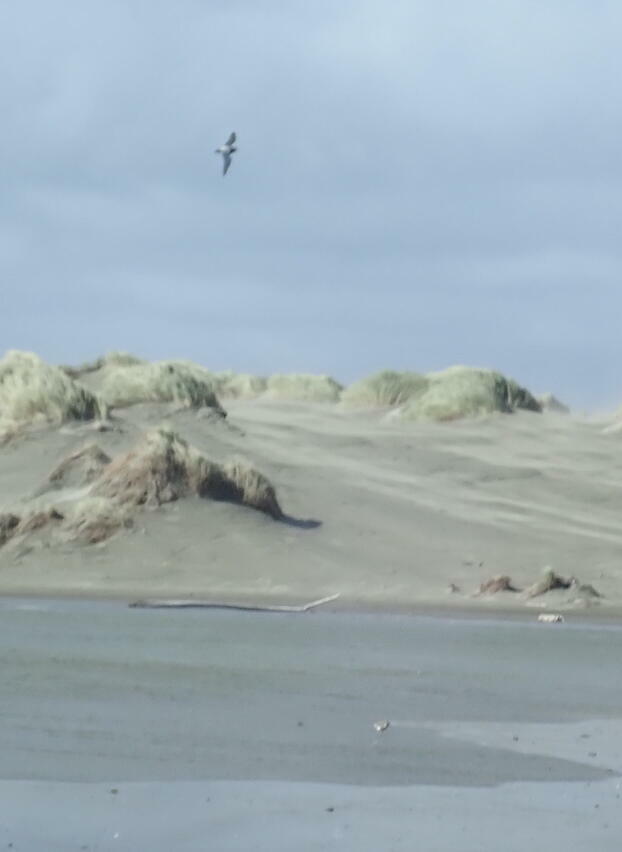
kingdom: Animalia
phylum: Chordata
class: Aves
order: Charadriiformes
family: Charadriidae
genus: Anarhynchus
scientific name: Anarhynchus
